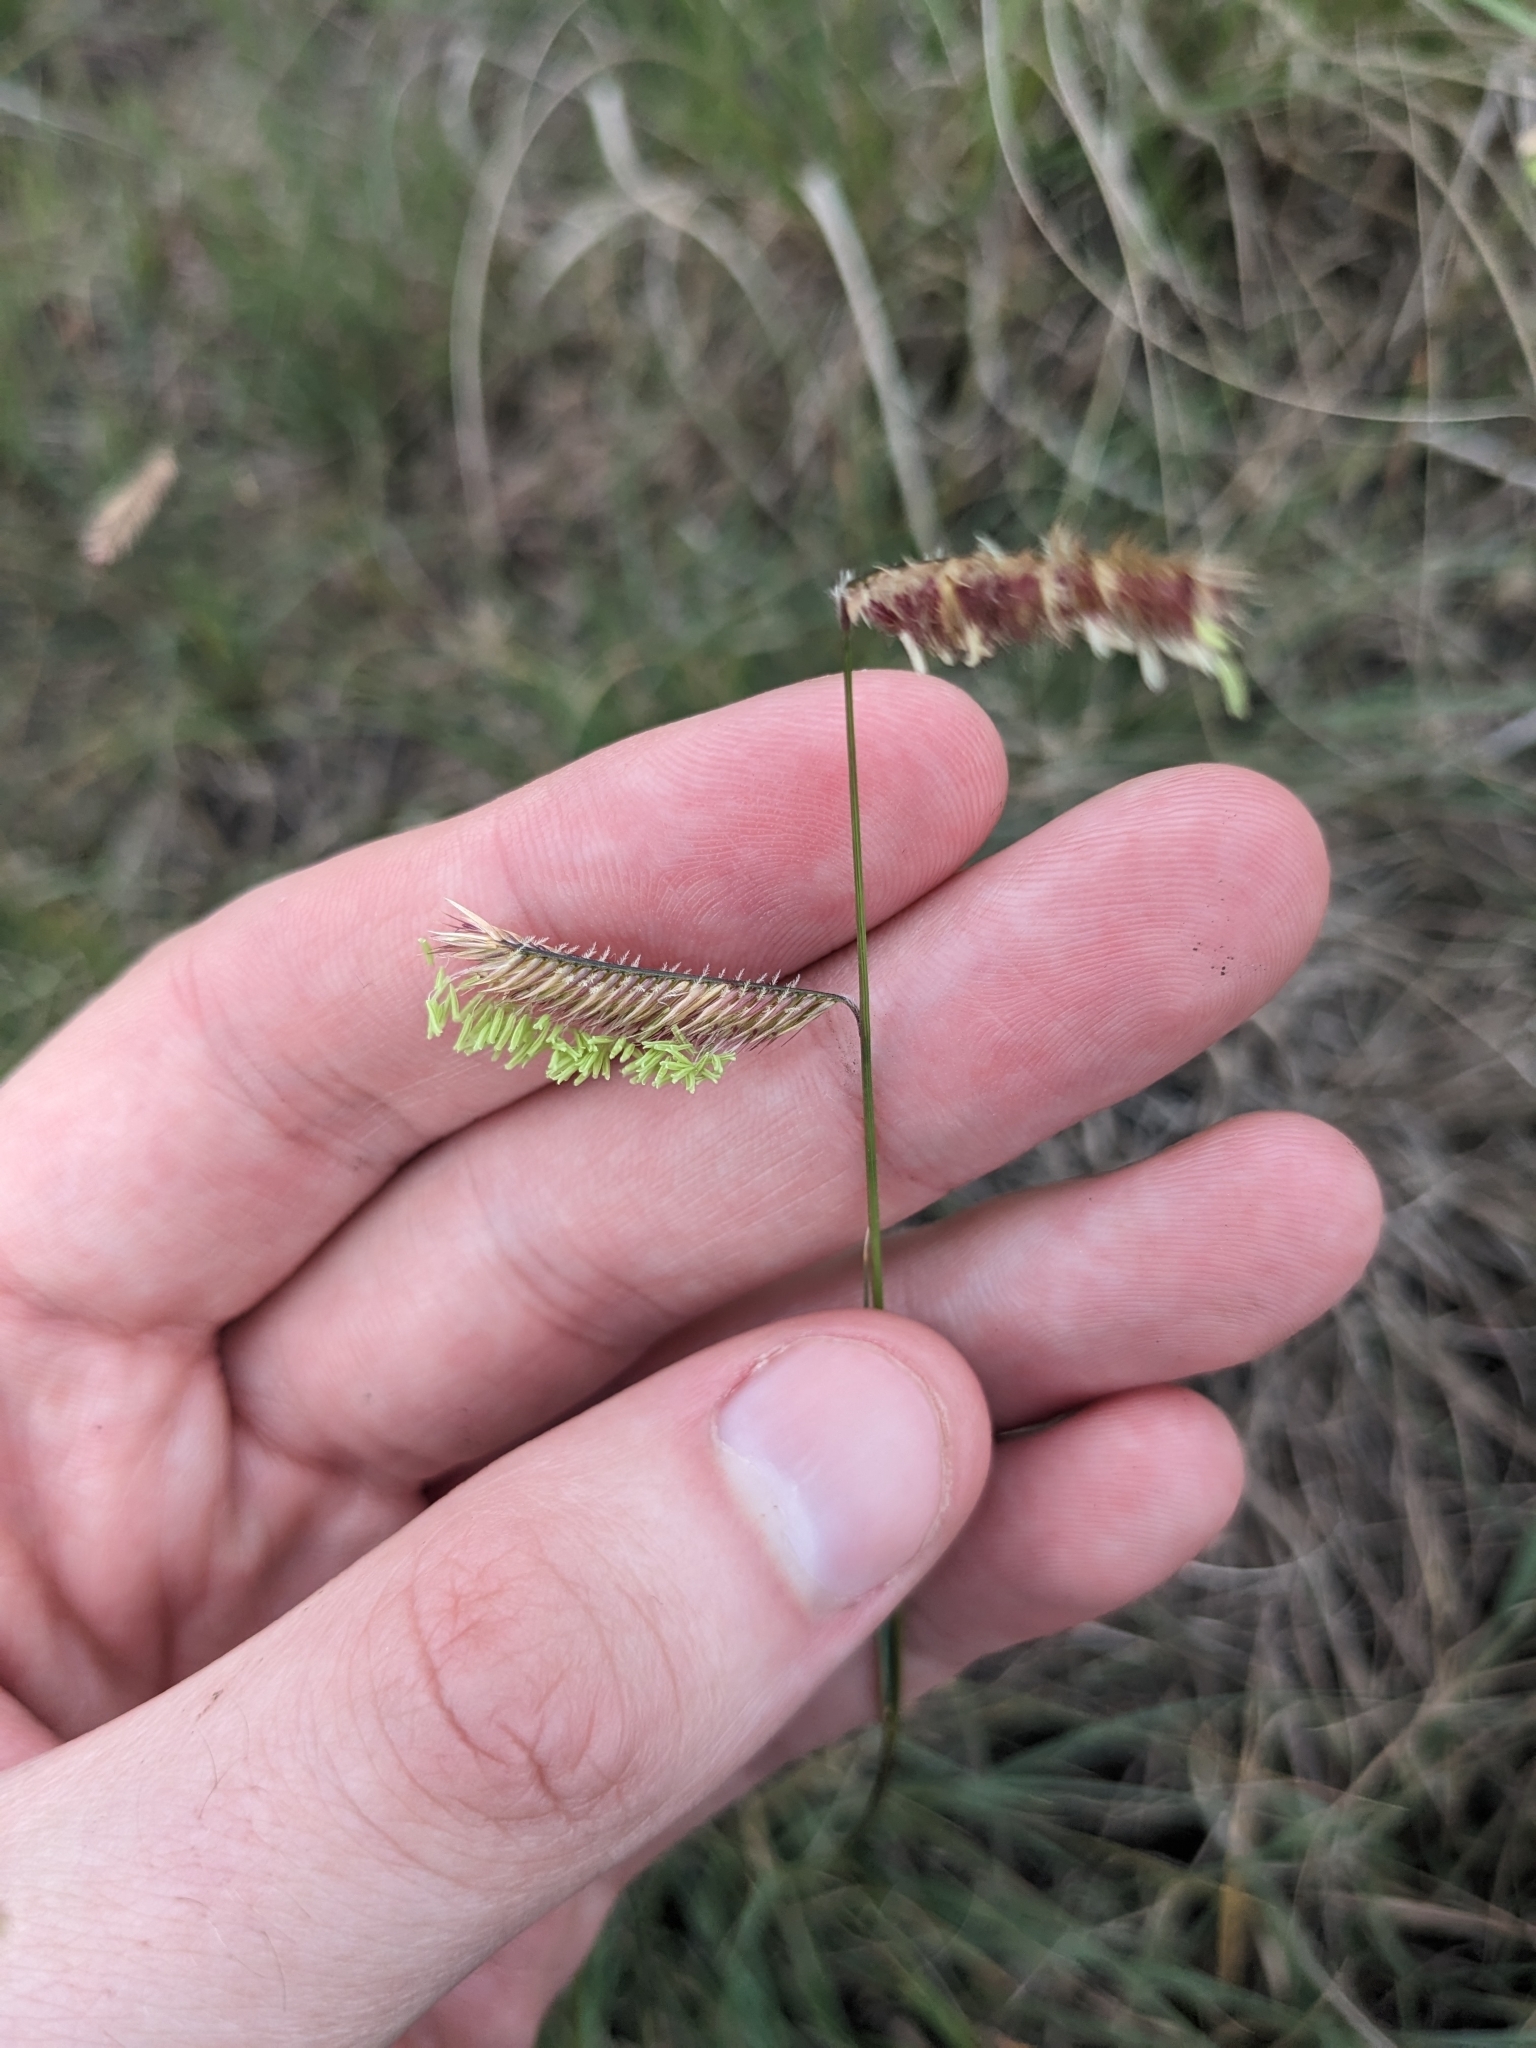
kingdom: Plantae
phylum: Tracheophyta
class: Liliopsida
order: Poales
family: Poaceae
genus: Bouteloua
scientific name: Bouteloua gracilis
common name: Blue grama
